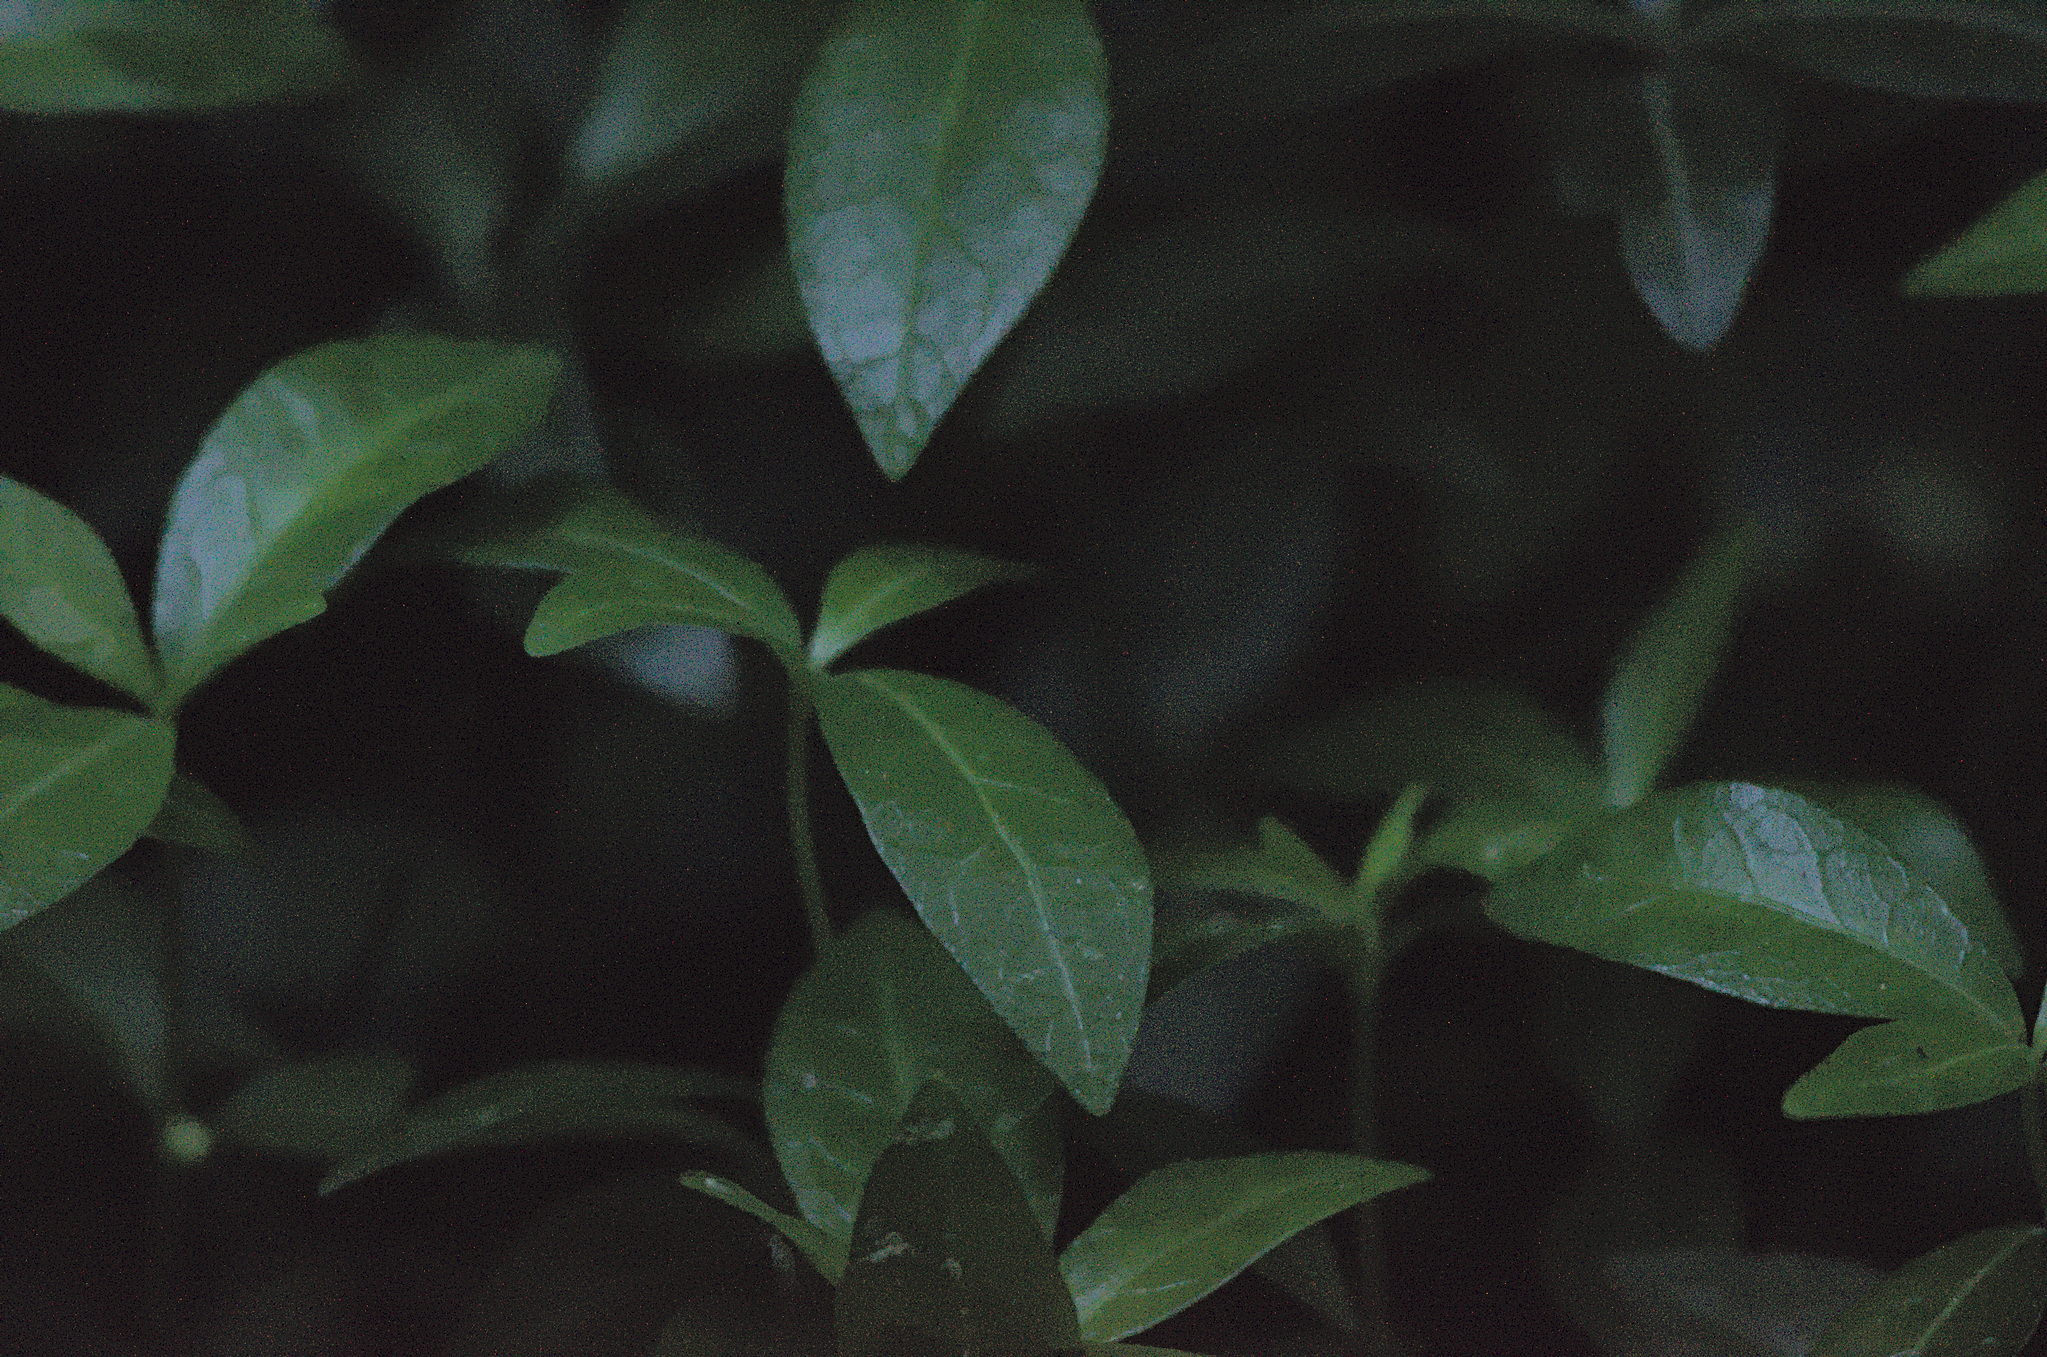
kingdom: Plantae
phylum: Tracheophyta
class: Magnoliopsida
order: Gentianales
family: Apocynaceae
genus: Vinca
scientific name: Vinca minor
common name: Lesser periwinkle
